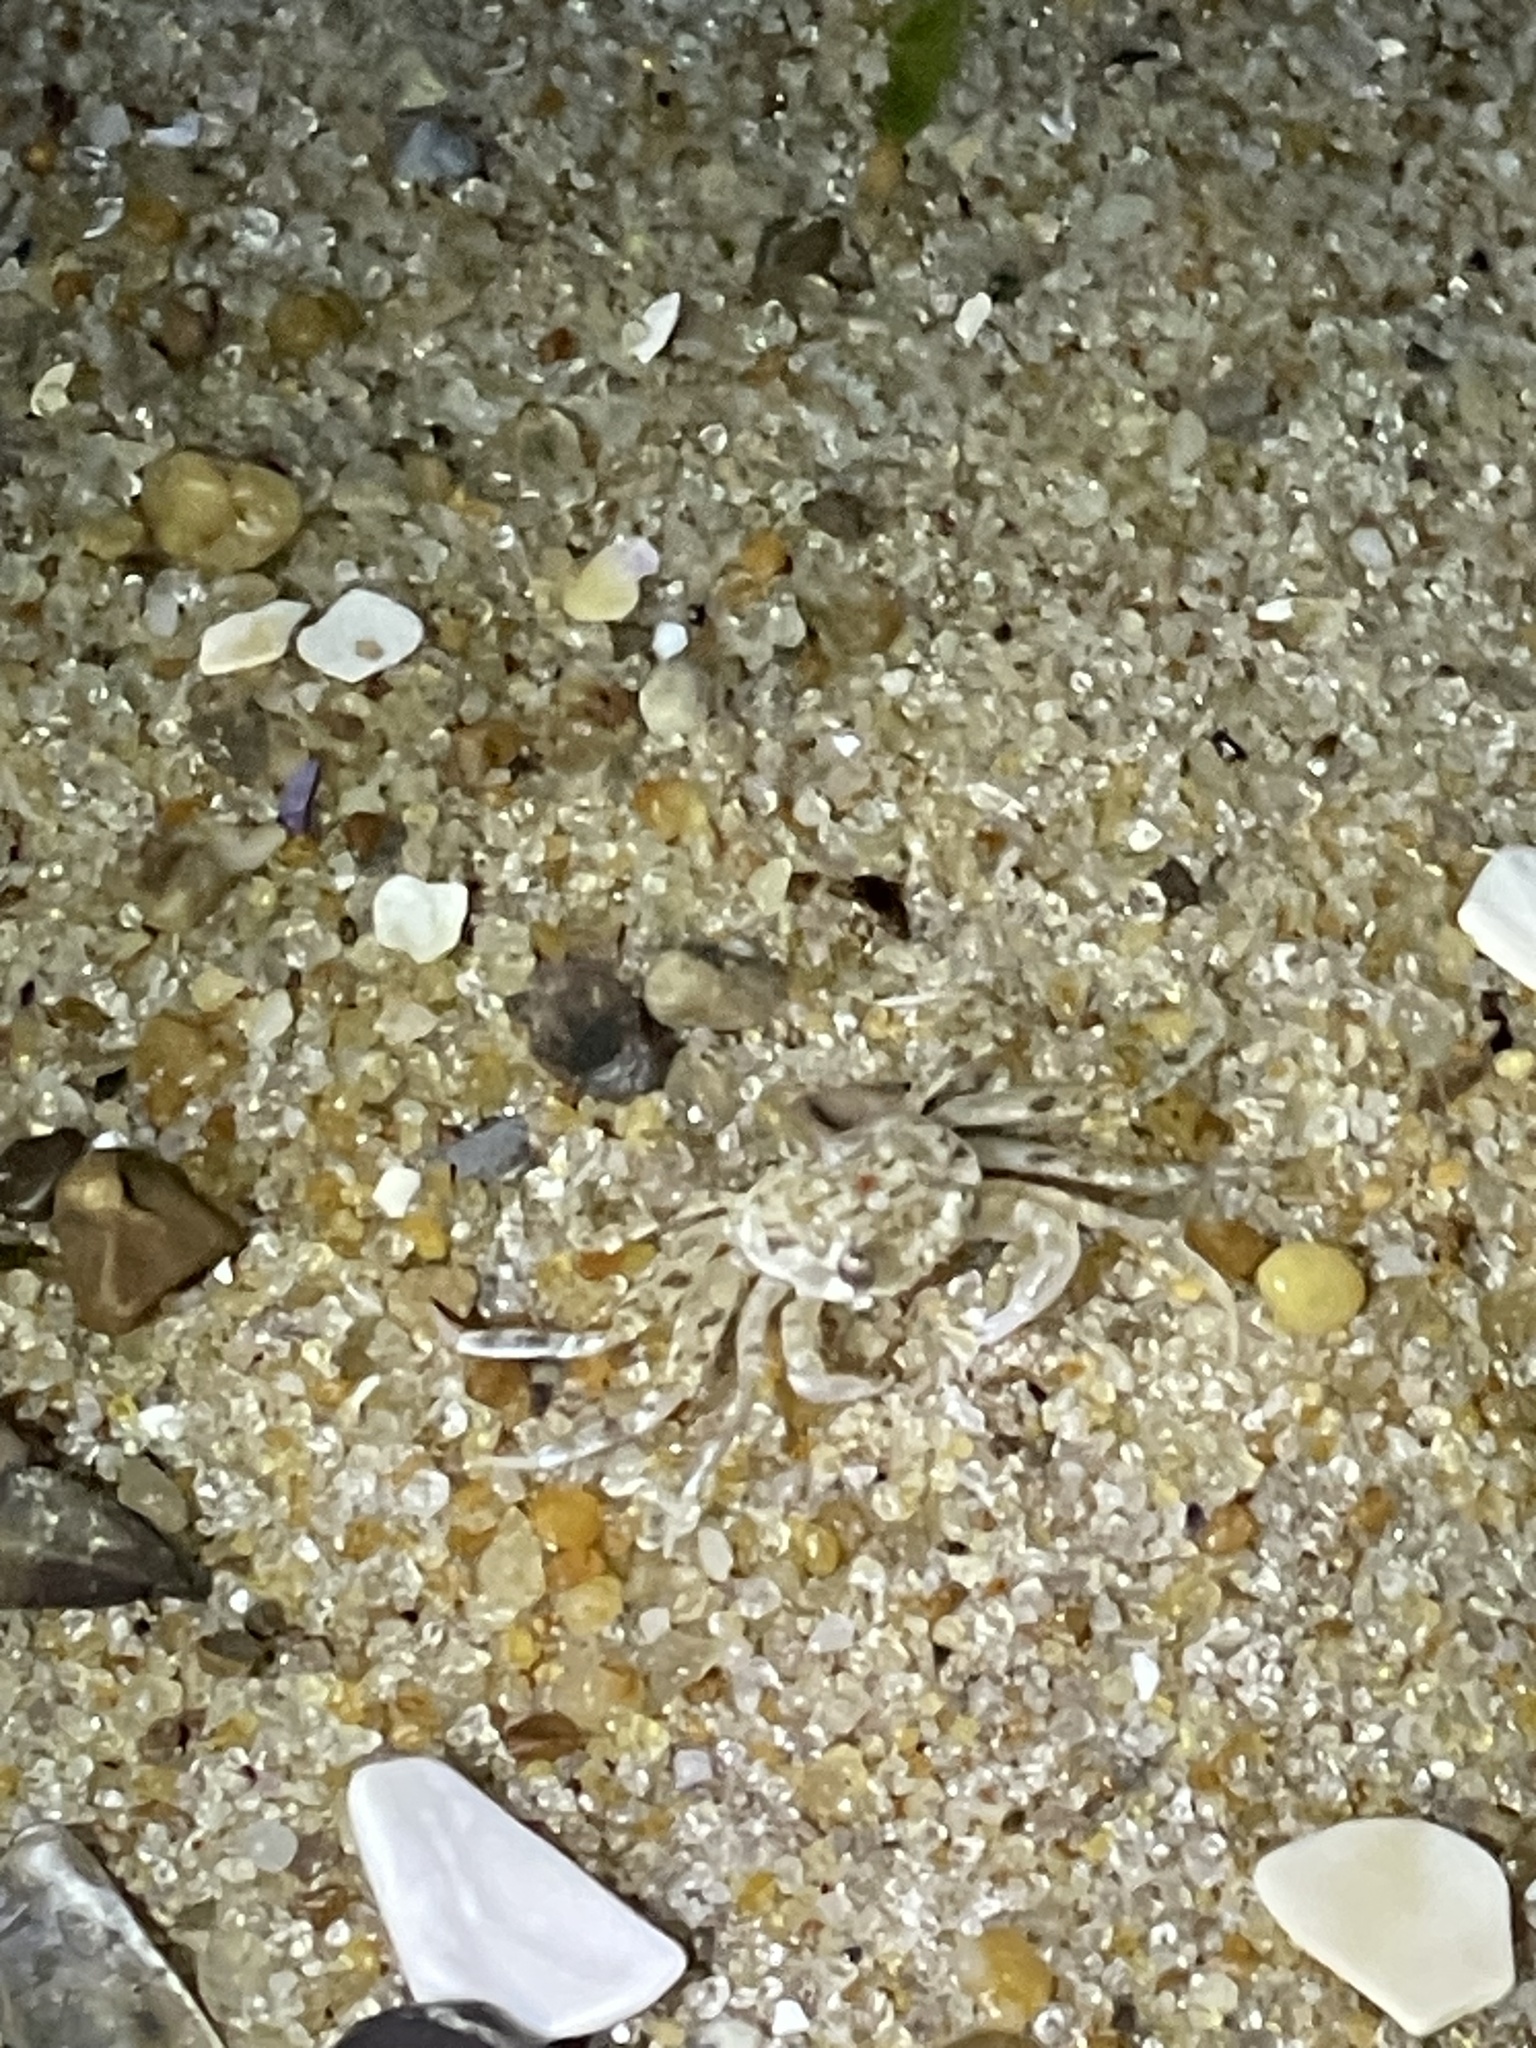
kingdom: Animalia
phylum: Arthropoda
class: Malacostraca
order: Decapoda
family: Ocypodidae
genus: Ocypode
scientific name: Ocypode quadrata
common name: Ghost crab
